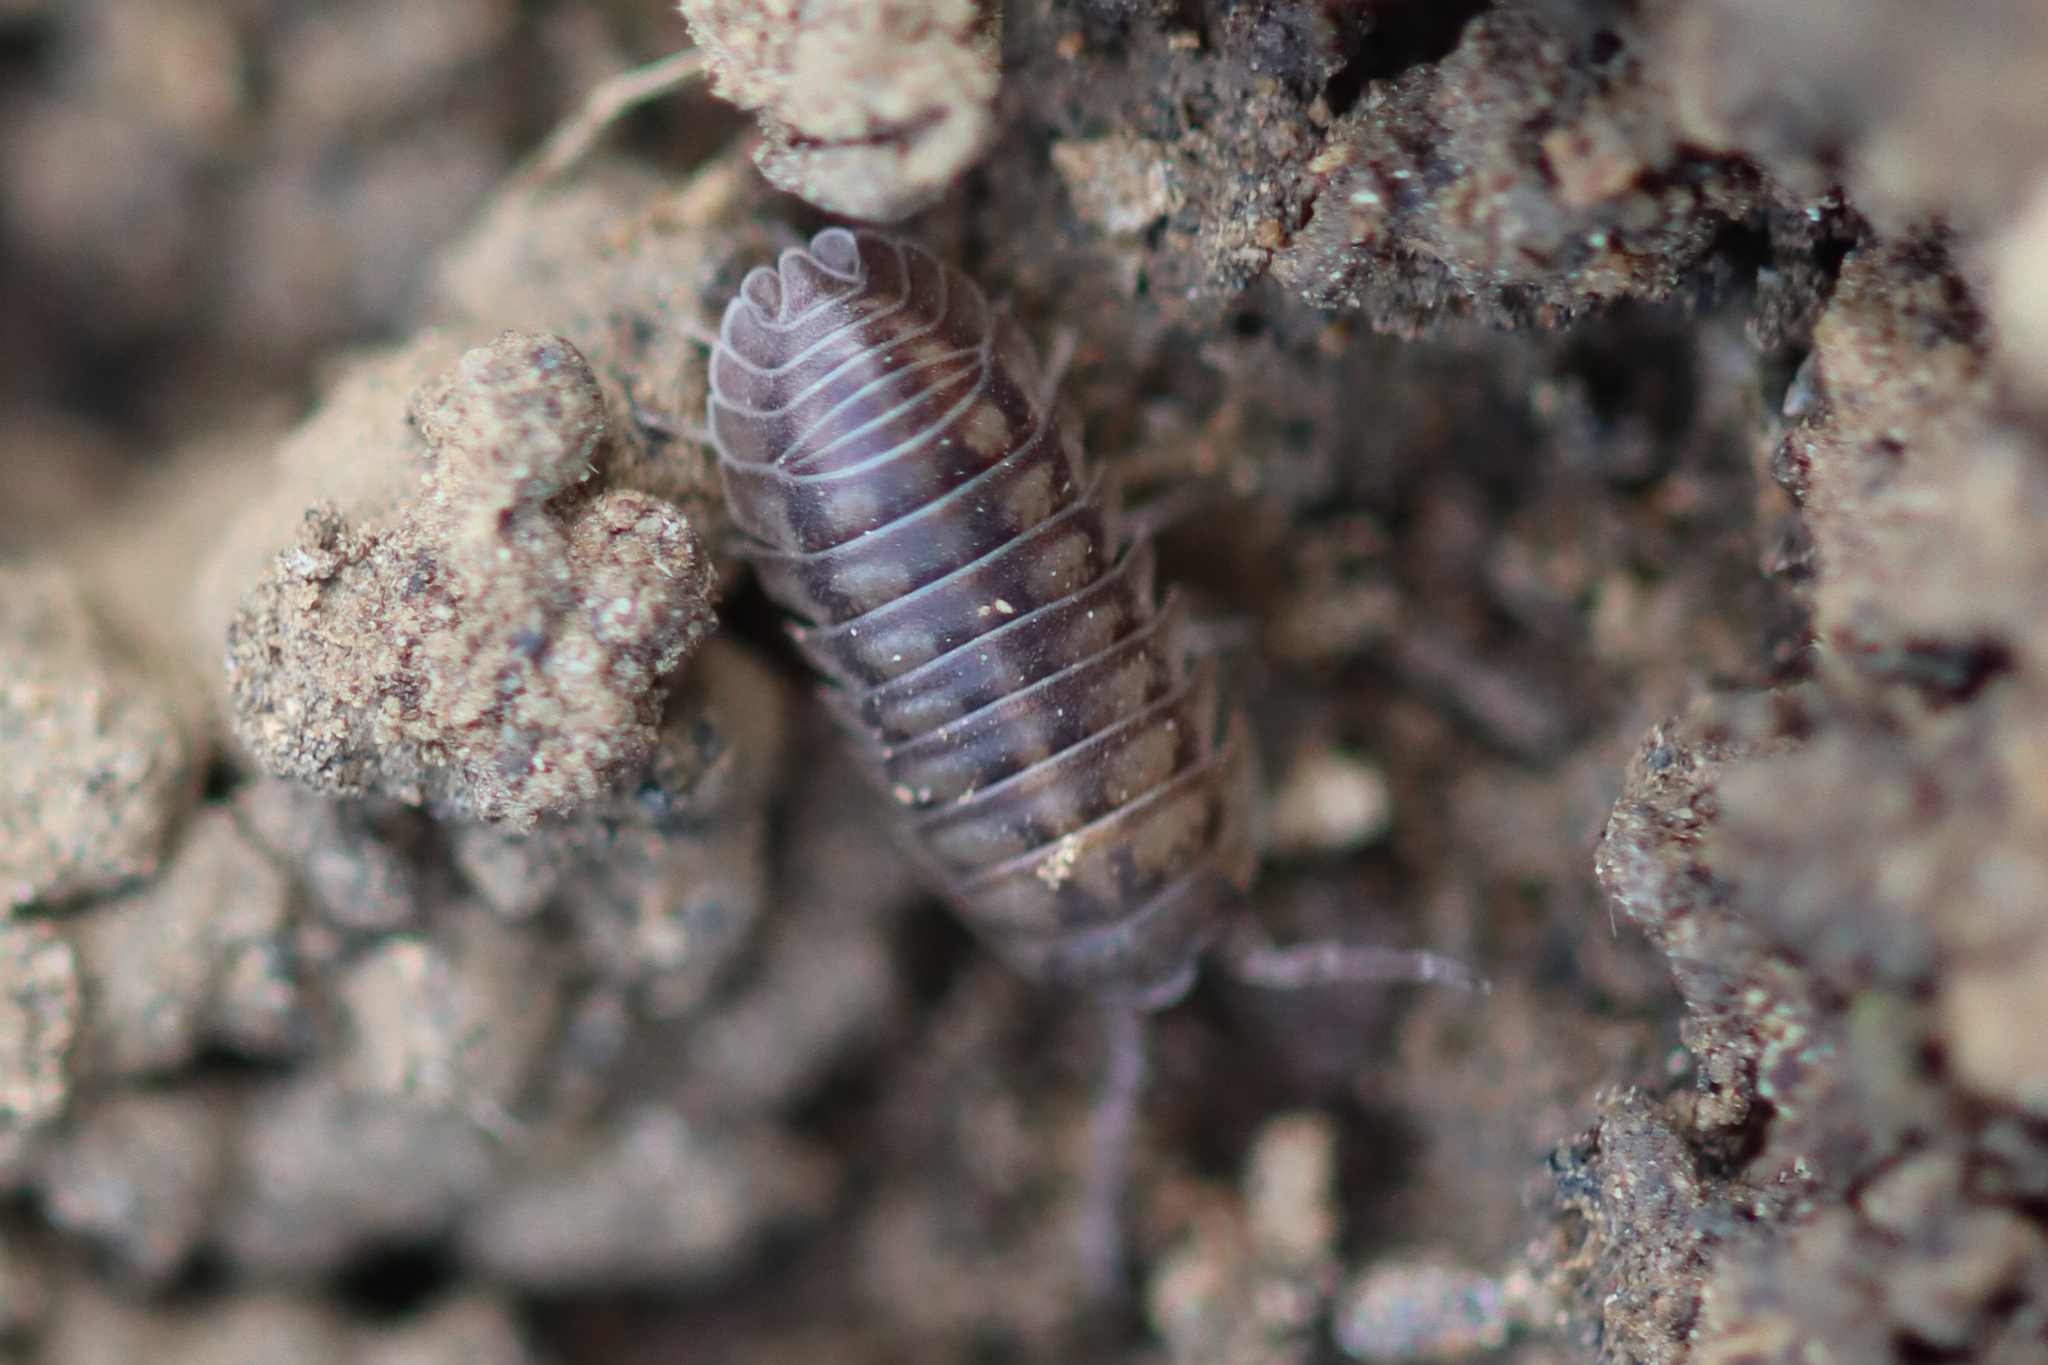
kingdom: Animalia
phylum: Arthropoda
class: Malacostraca
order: Isopoda
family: Armadillidiidae
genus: Armadillidium
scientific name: Armadillidium nasatum
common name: Isopod
